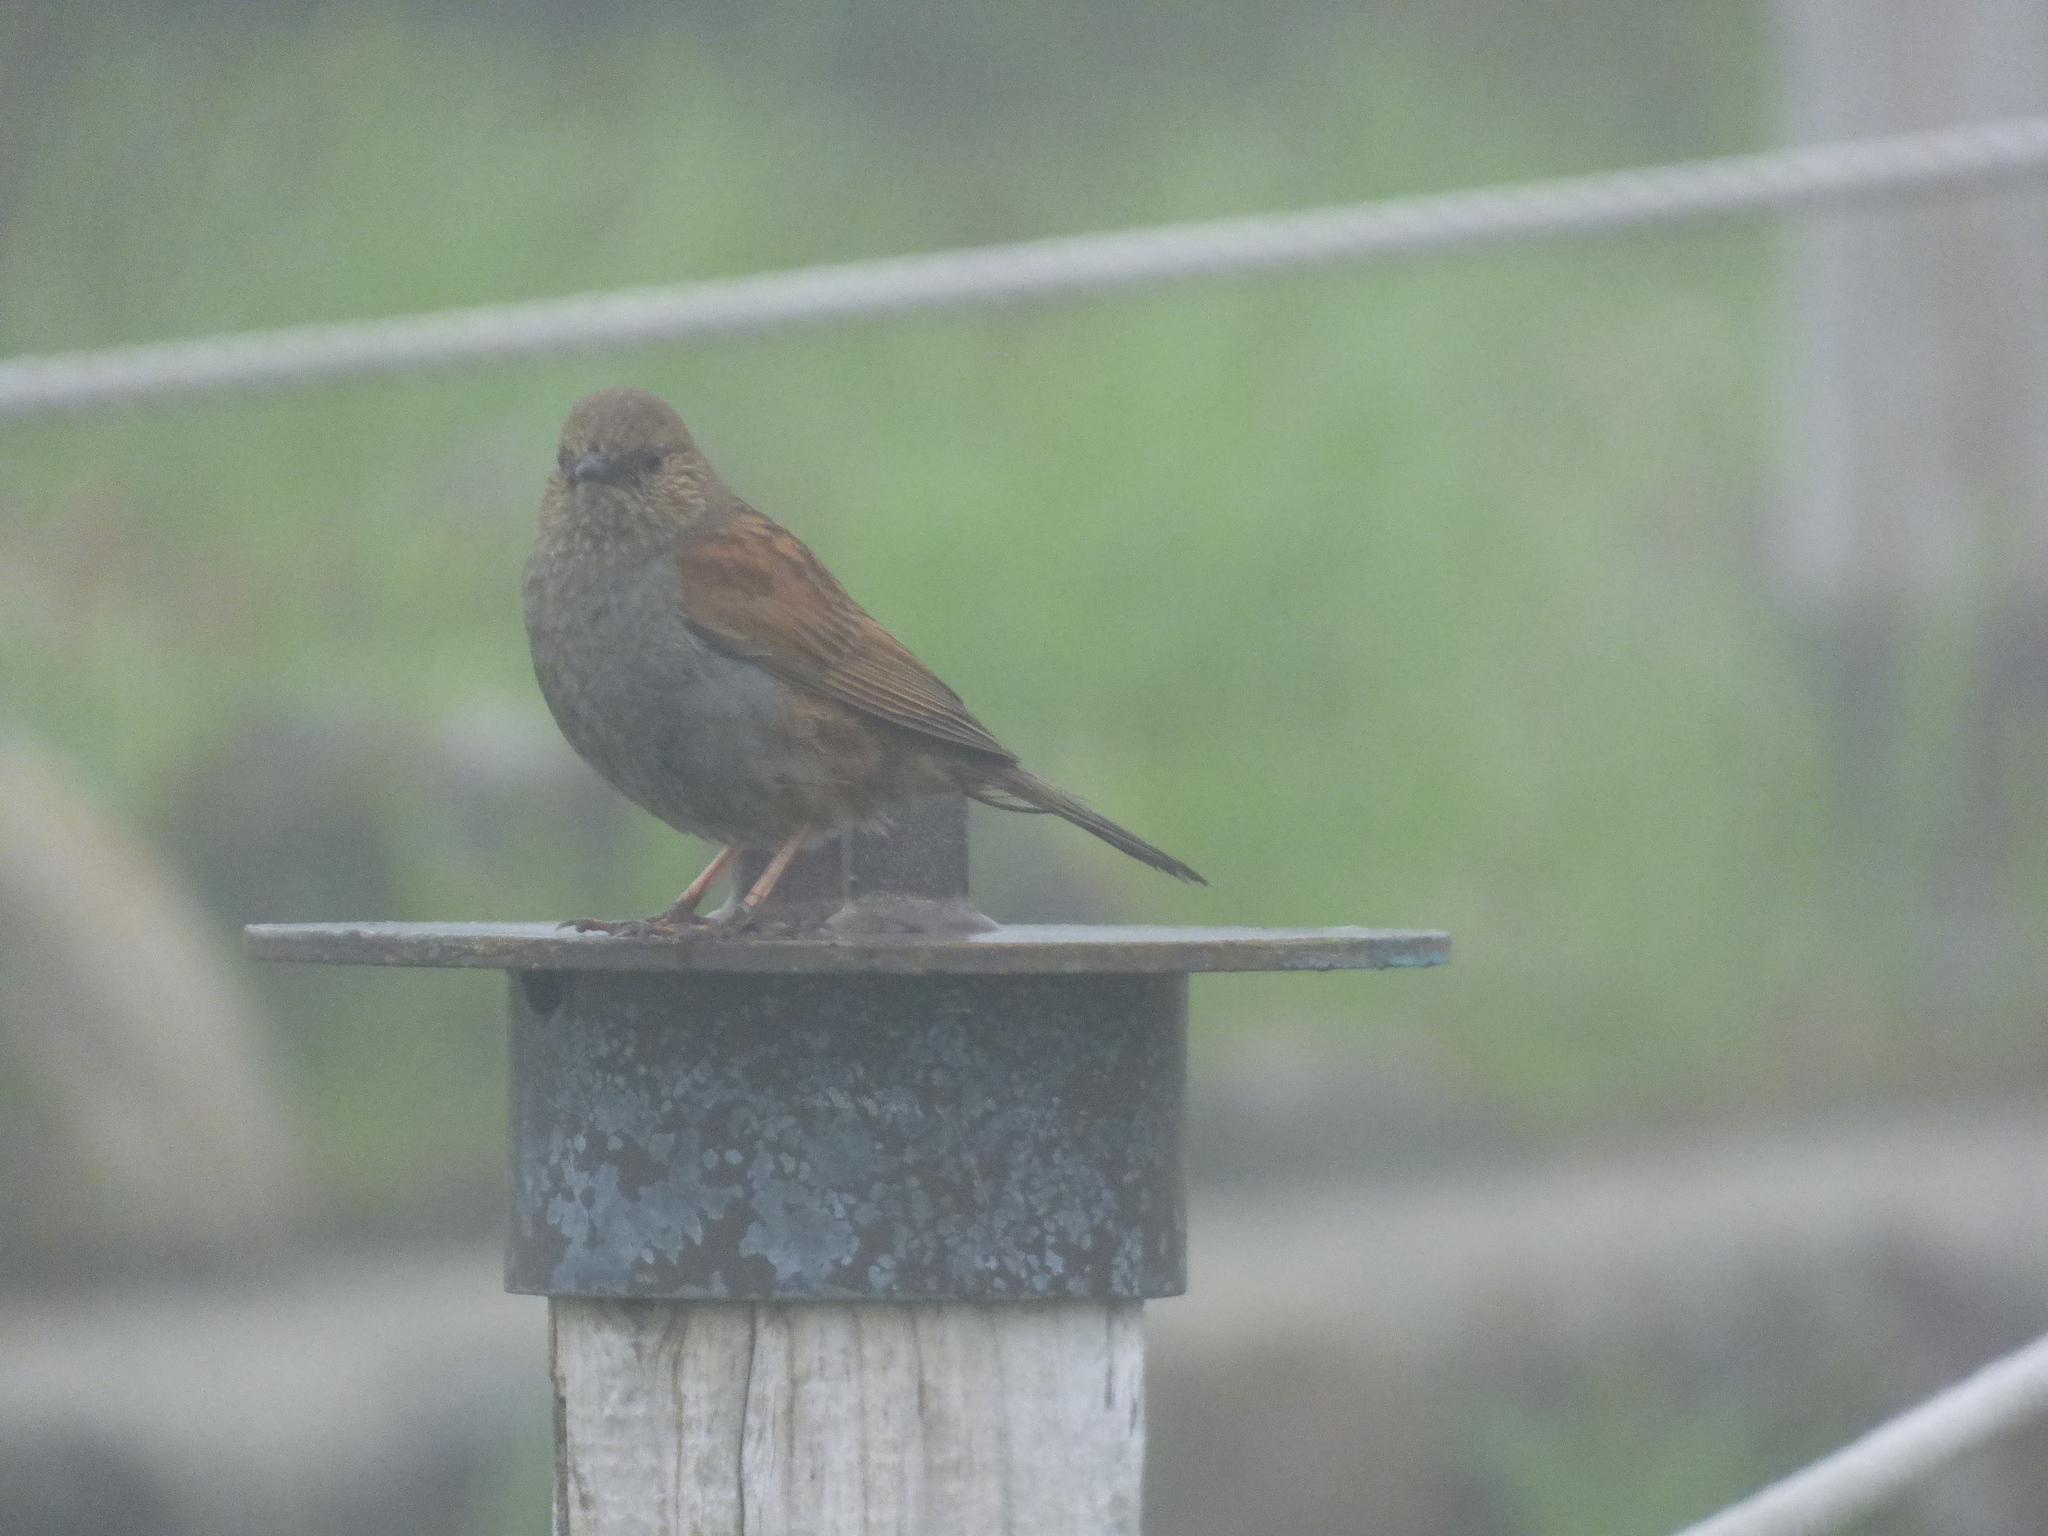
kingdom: Animalia
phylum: Chordata
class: Aves
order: Passeriformes
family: Prunellidae
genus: Prunella
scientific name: Prunella rubida
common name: Japanese accentor
